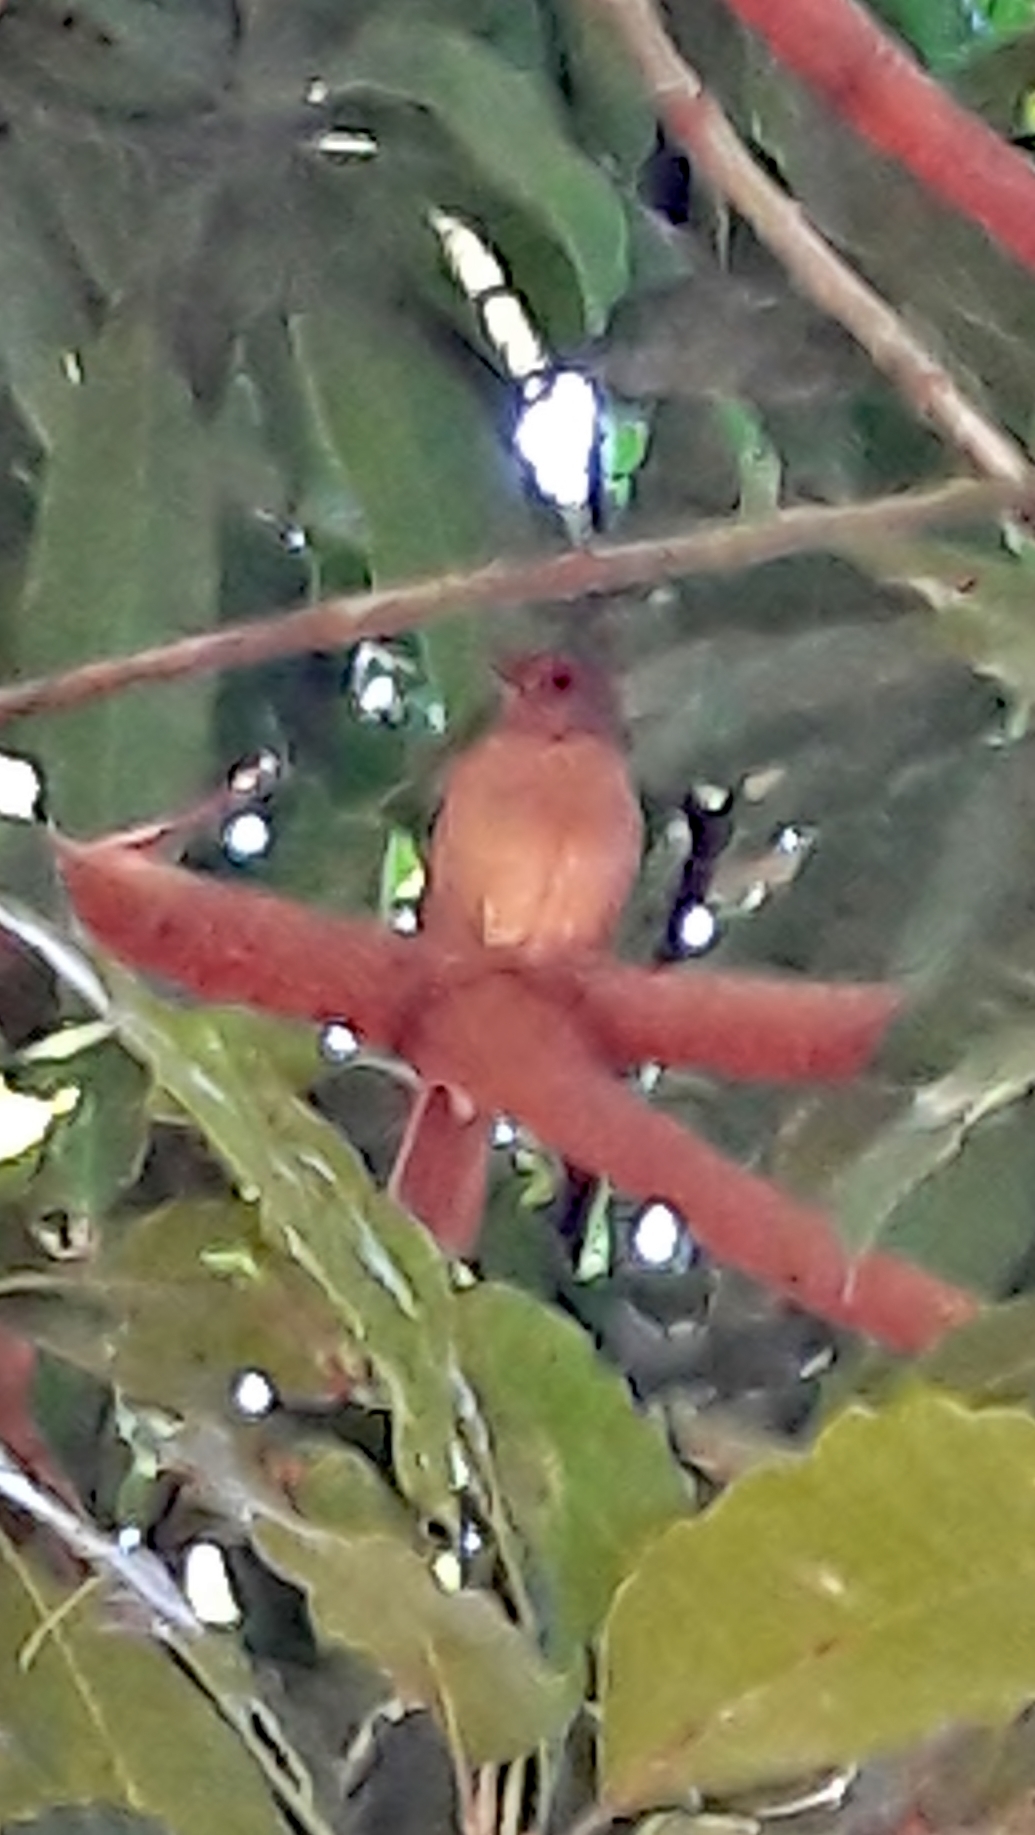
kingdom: Animalia
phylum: Chordata
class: Aves
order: Passeriformes
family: Turdidae
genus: Turdus
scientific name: Turdus leucomelas
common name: Pale-breasted thrush
